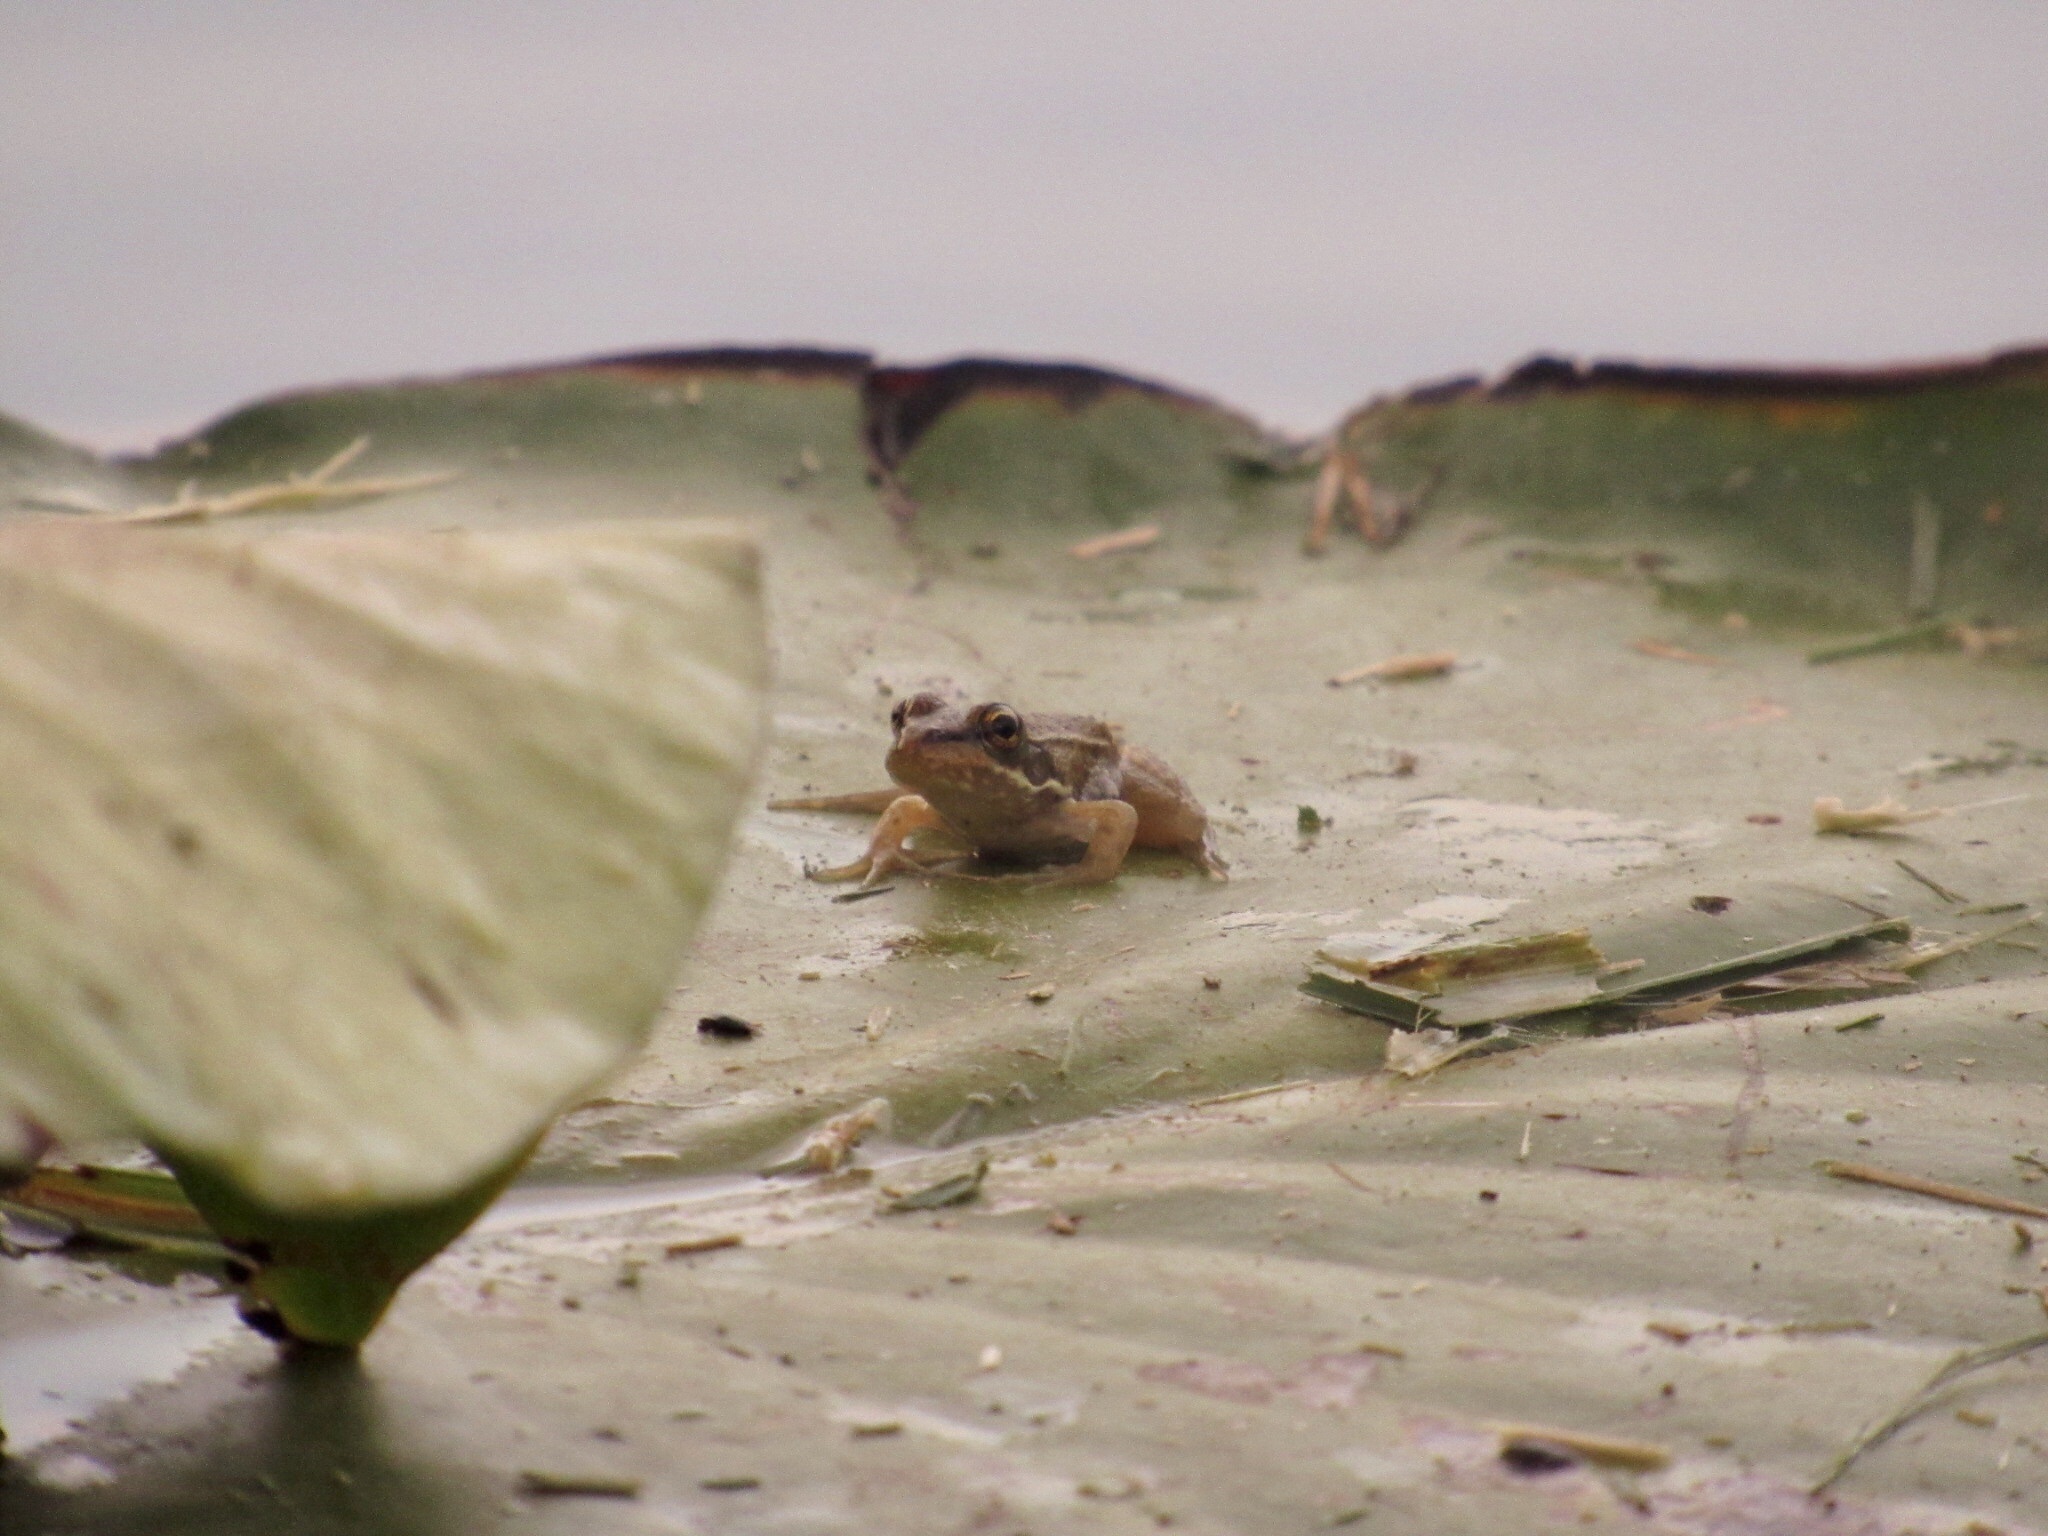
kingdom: Animalia
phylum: Chordata
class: Amphibia
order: Anura
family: Ranidae
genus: Pelophylax
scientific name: Pelophylax ridibundus
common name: Marsh frog
